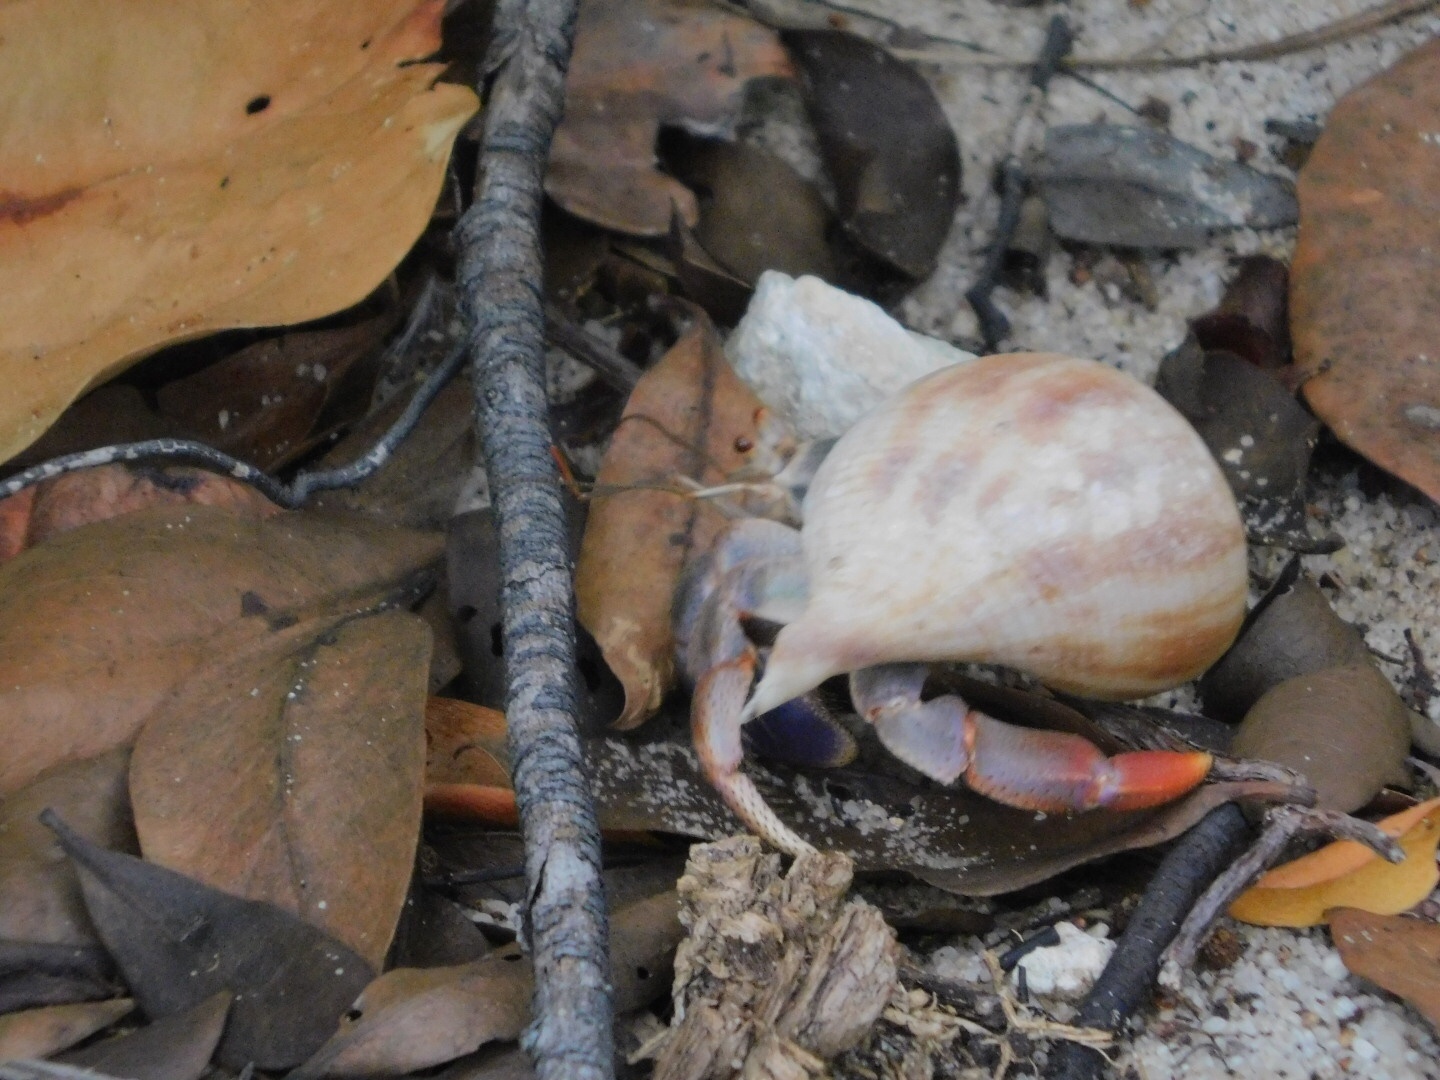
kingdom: Animalia
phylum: Arthropoda
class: Malacostraca
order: Decapoda
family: Coenobitidae
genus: Coenobita
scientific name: Coenobita clypeatus
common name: Caribbean hermit crab
